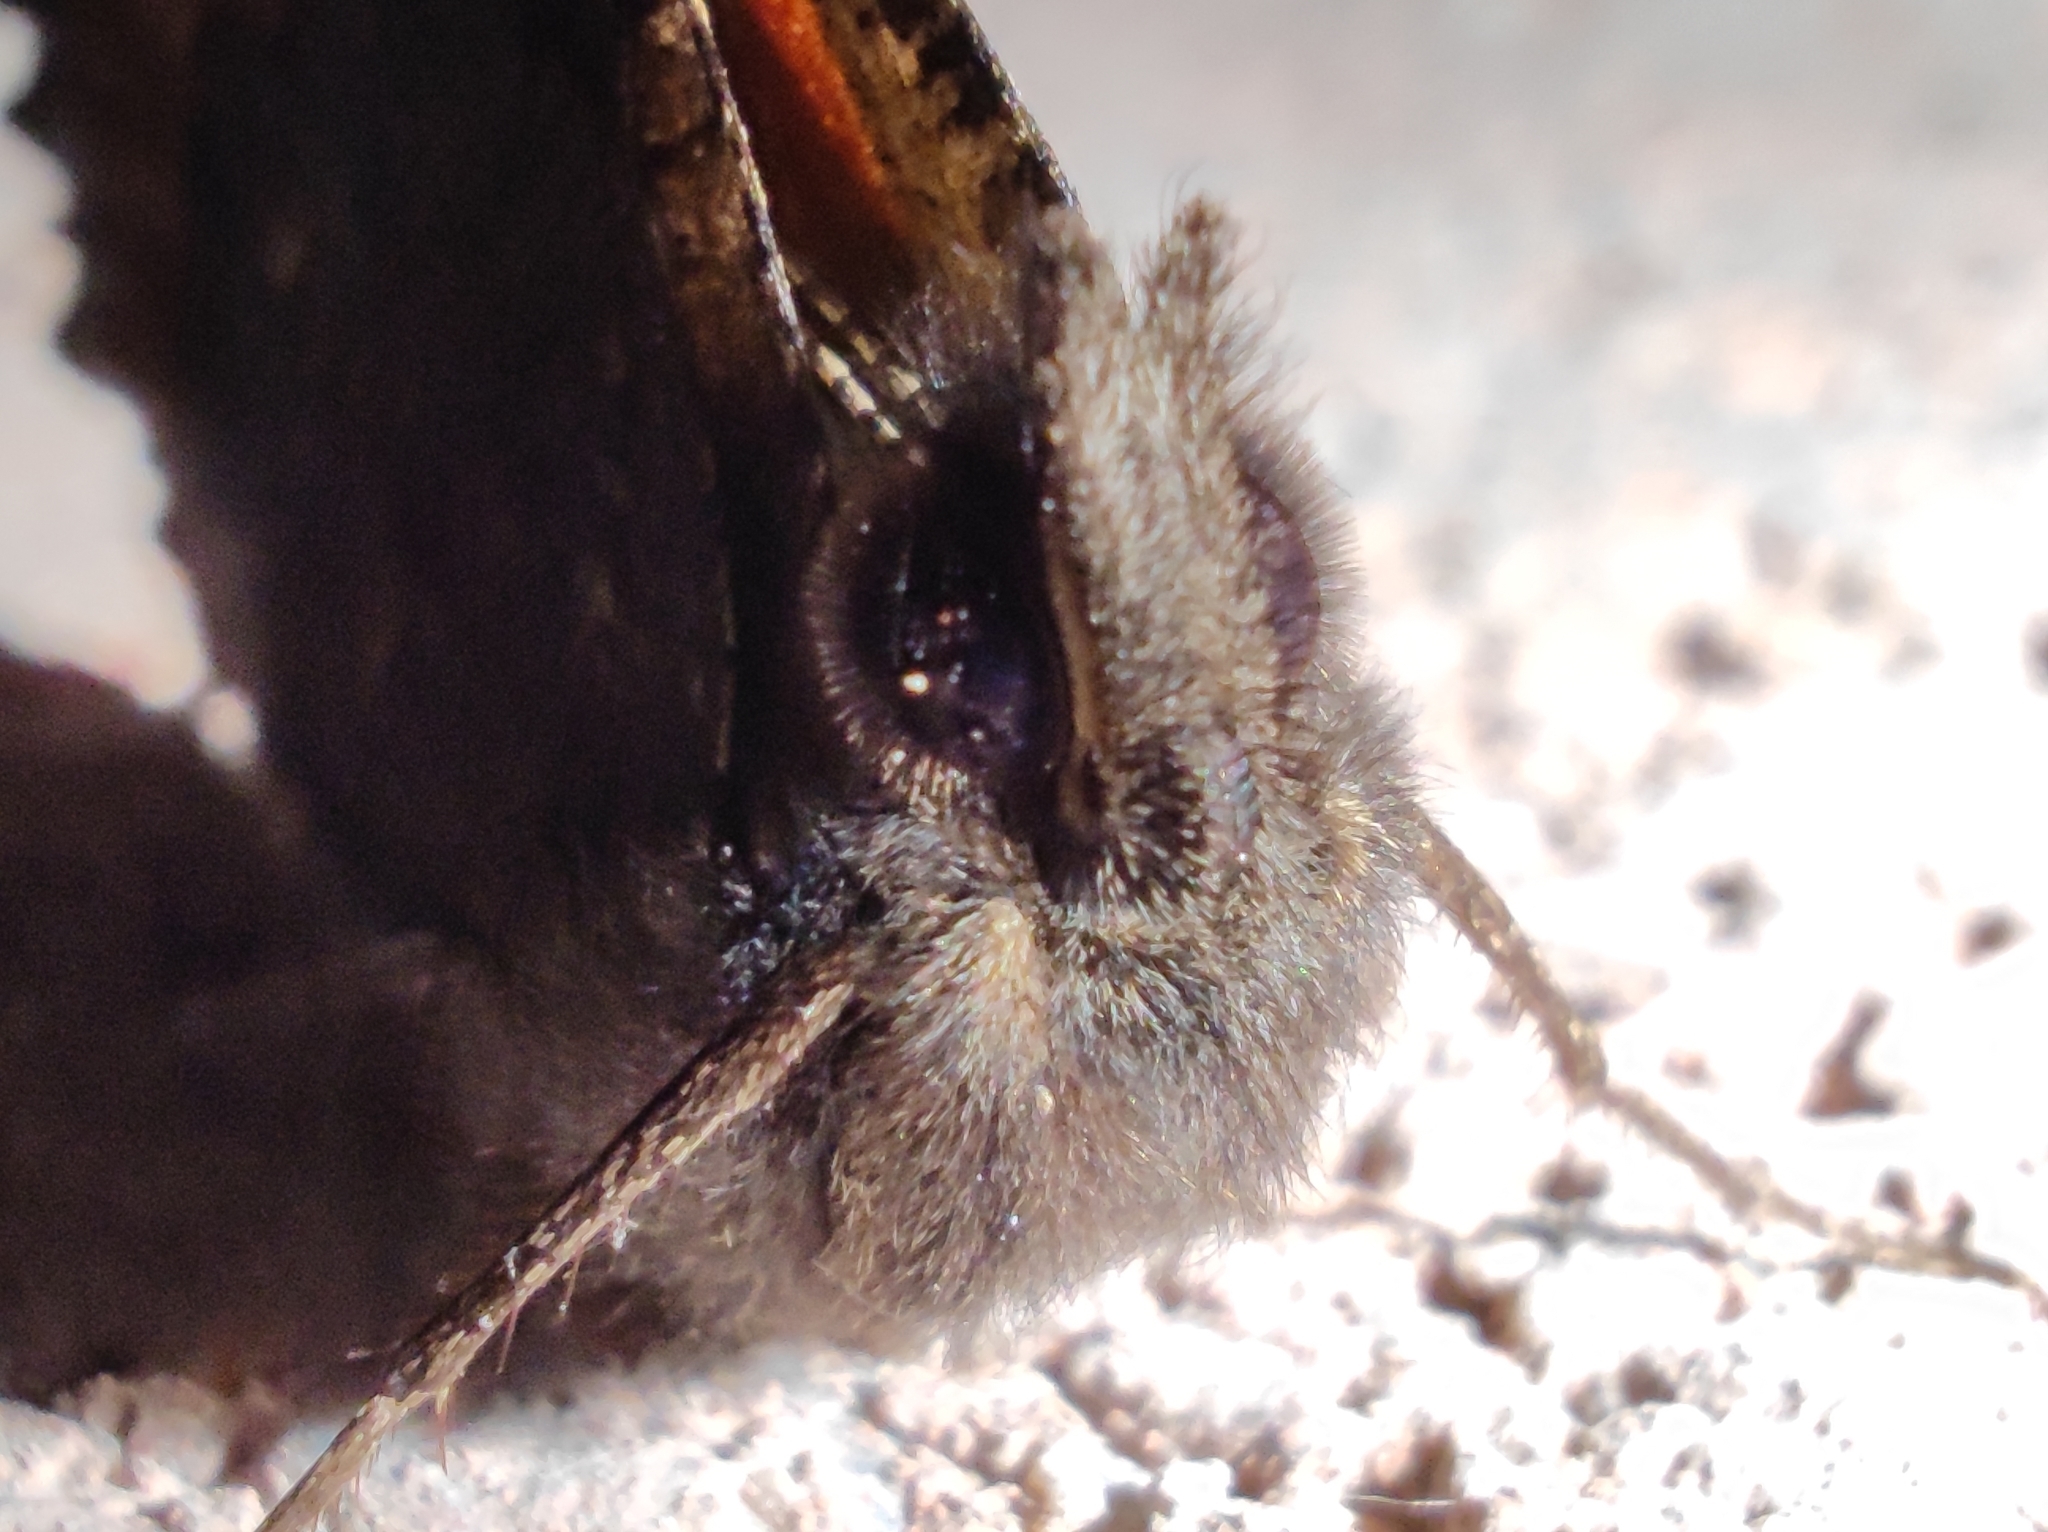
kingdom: Animalia
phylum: Arthropoda
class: Insecta
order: Lepidoptera
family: Nymphalidae
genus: Aglais
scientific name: Aglais urticae
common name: Small tortoiseshell
